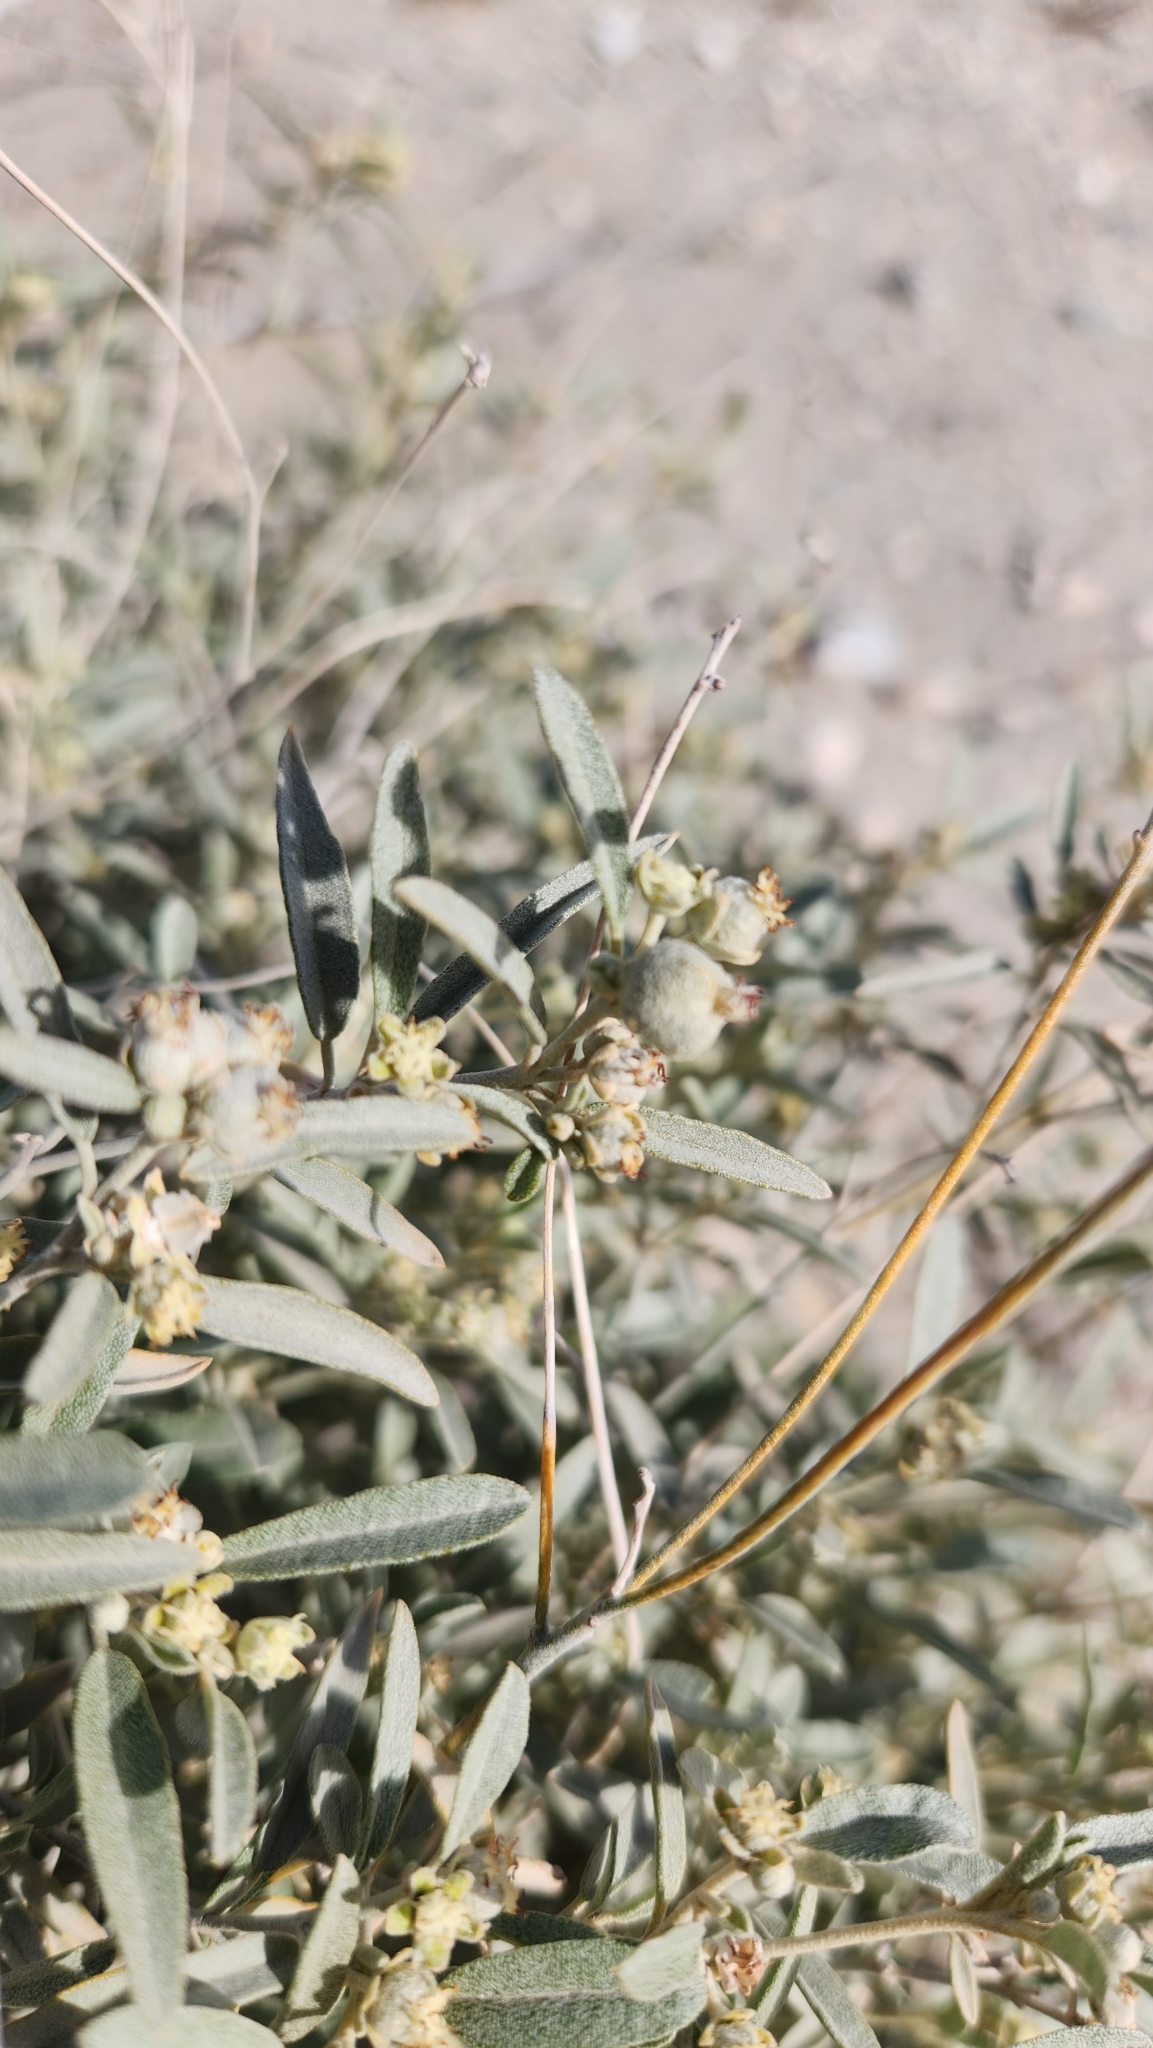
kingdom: Plantae
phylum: Tracheophyta
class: Magnoliopsida
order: Malpighiales
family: Euphorbiaceae
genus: Croton
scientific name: Croton californicus
